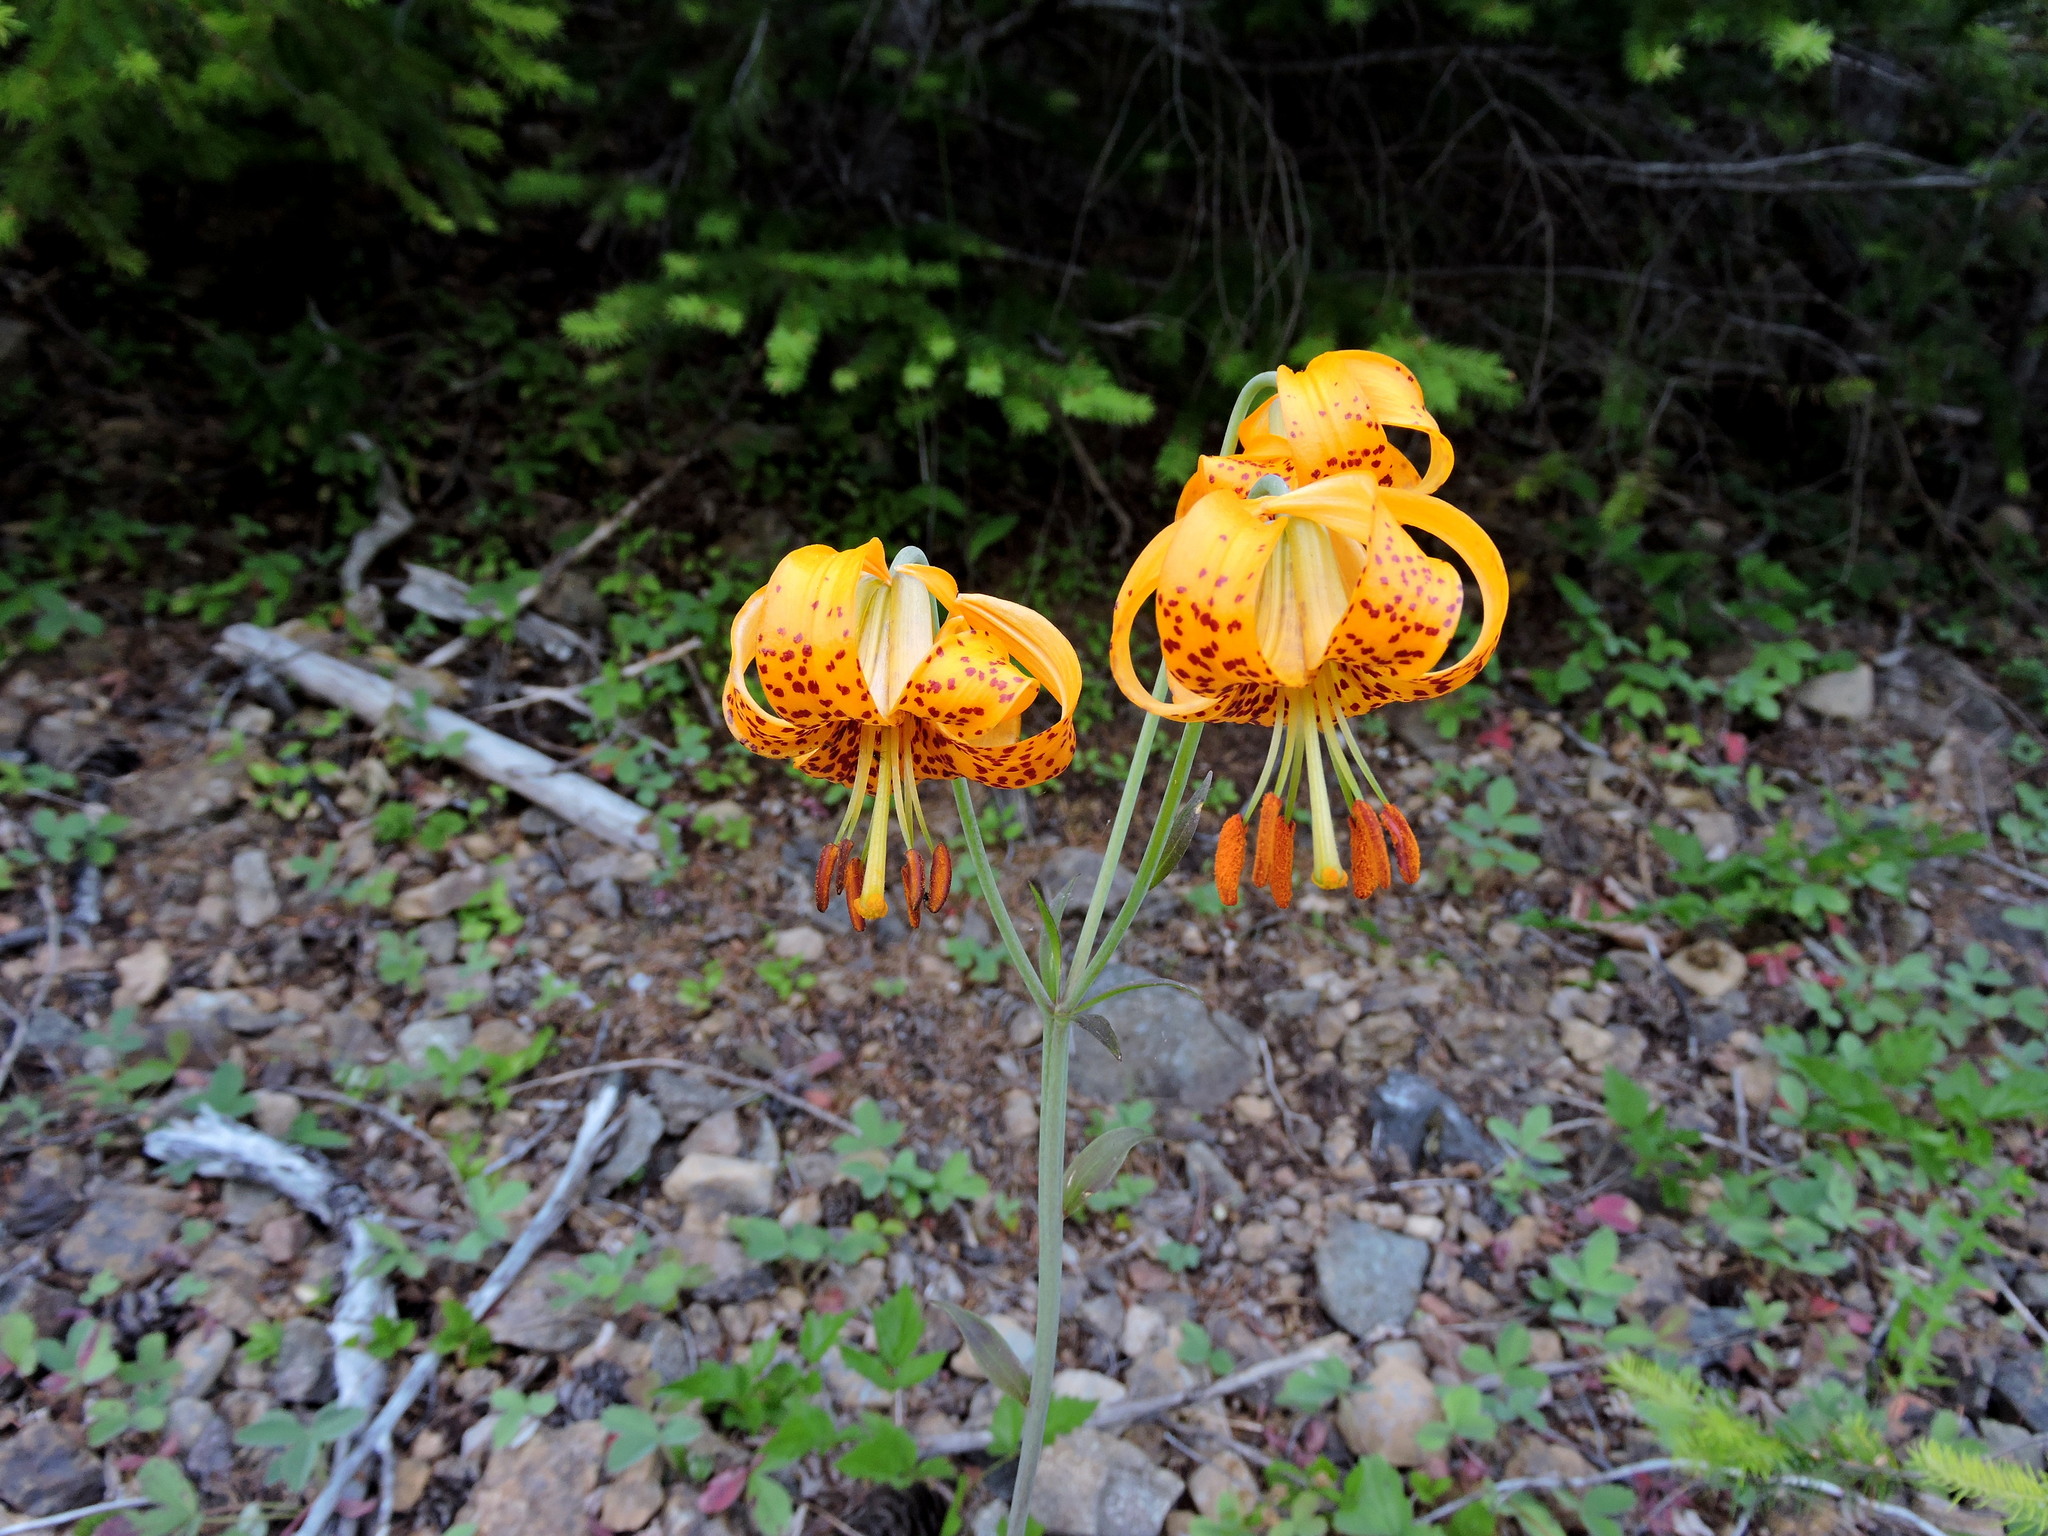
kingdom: Plantae
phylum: Tracheophyta
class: Liliopsida
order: Liliales
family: Liliaceae
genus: Lilium
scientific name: Lilium columbianum
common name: Columbia lily
